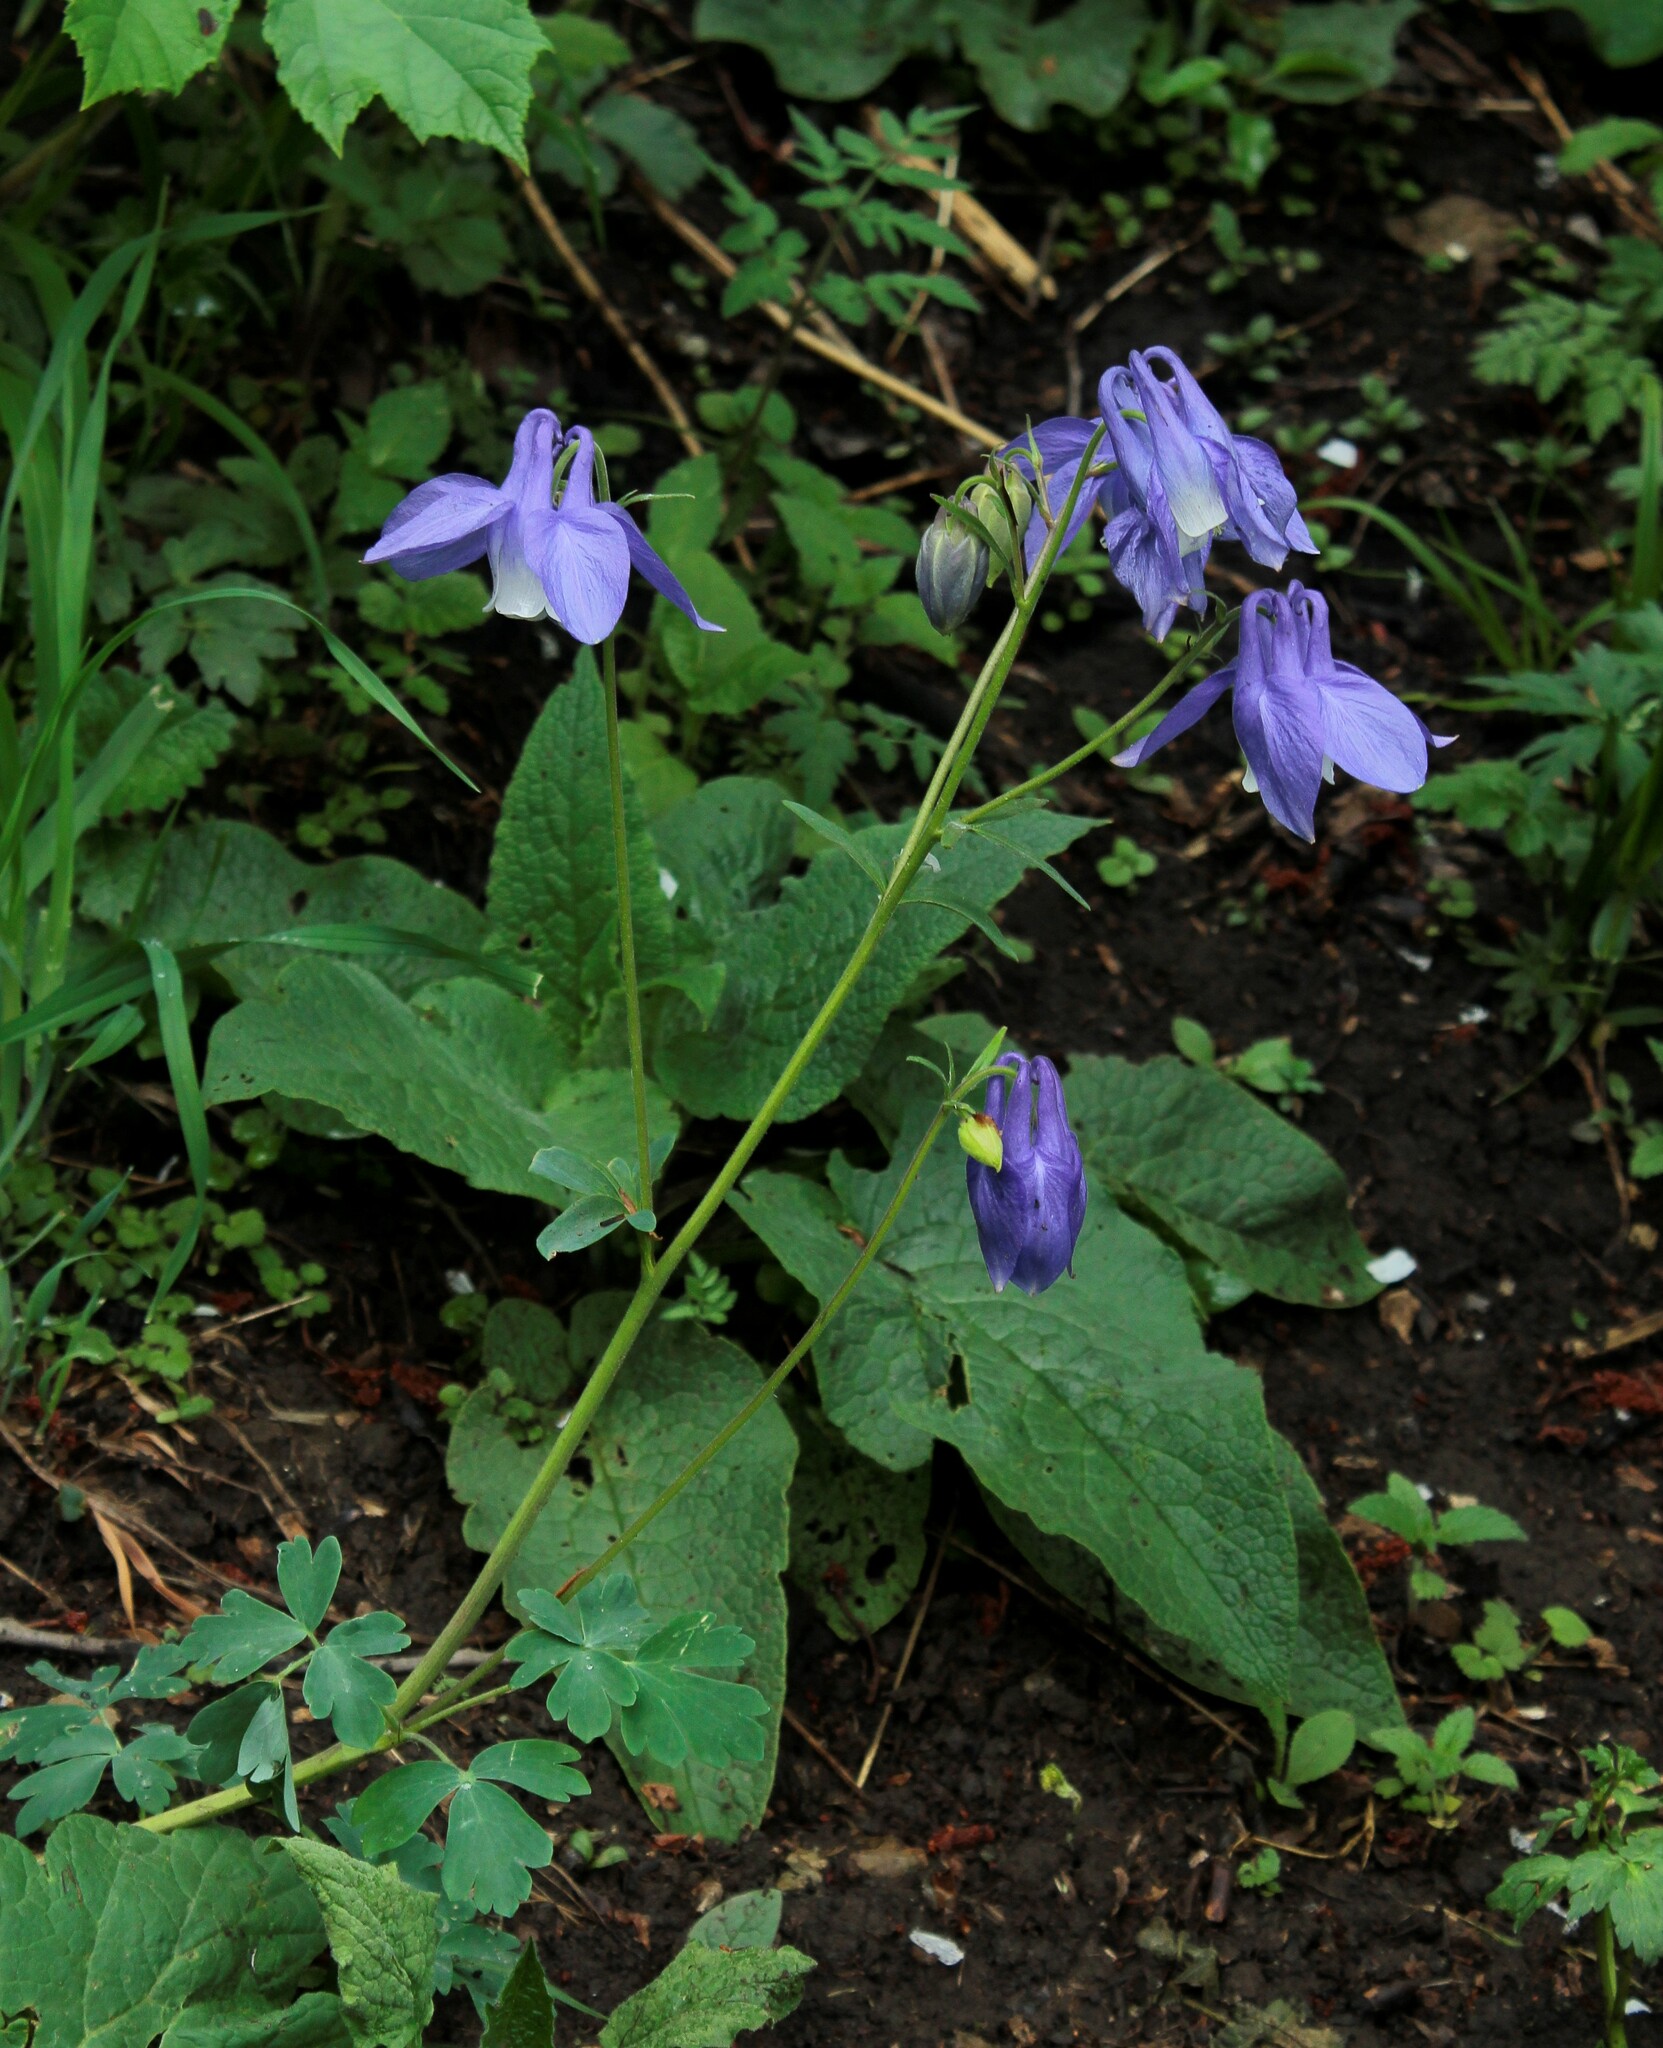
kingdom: Plantae
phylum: Tracheophyta
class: Magnoliopsida
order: Ranunculales
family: Ranunculaceae
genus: Aquilegia
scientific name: Aquilegia olympica
